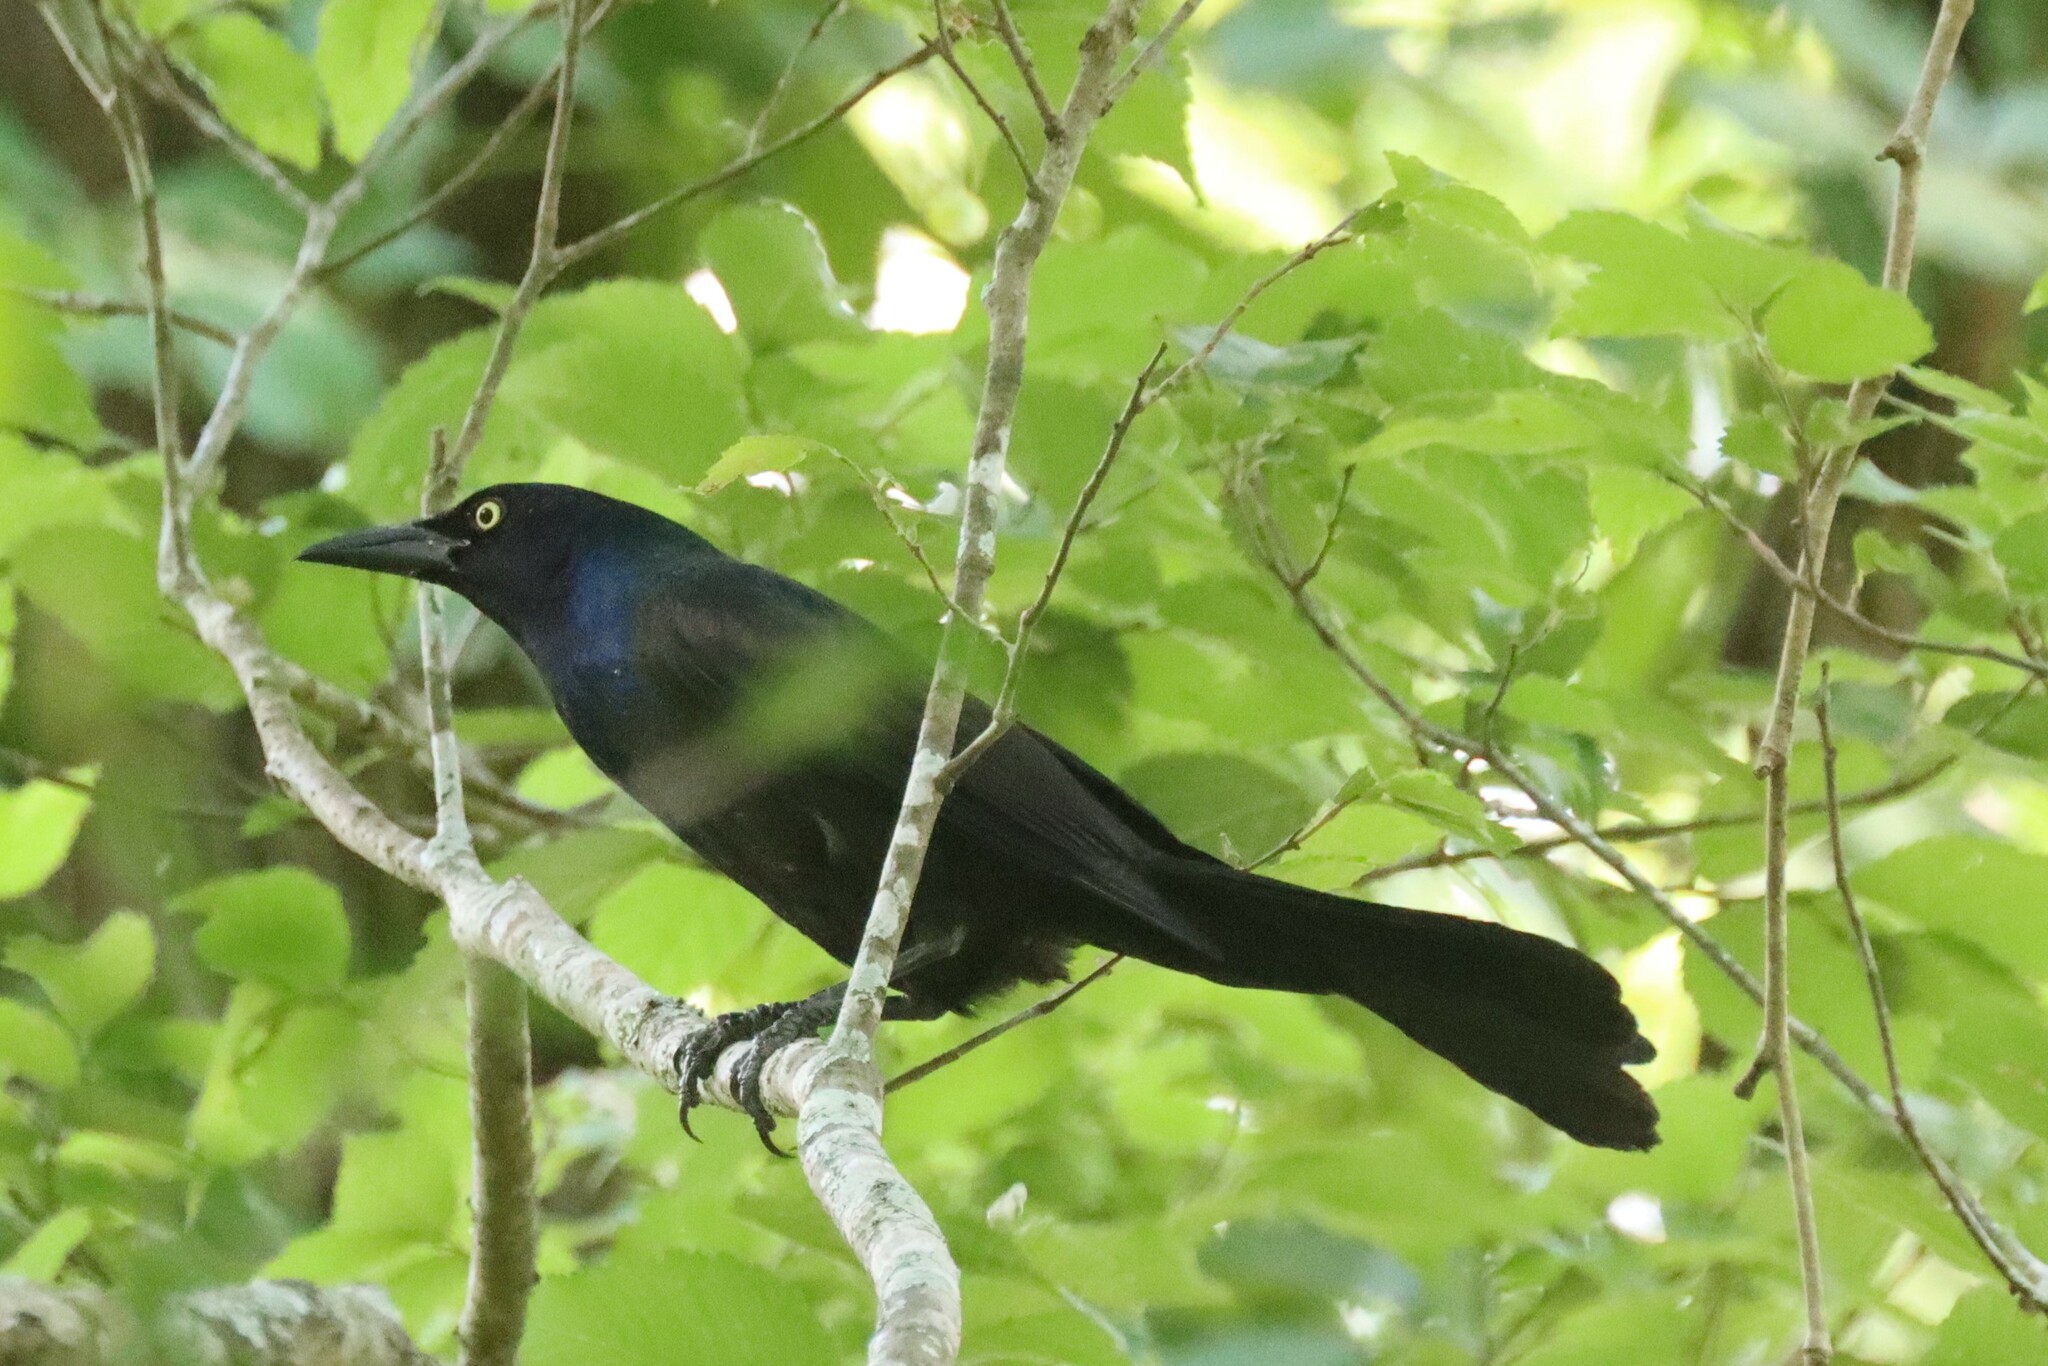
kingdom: Animalia
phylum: Chordata
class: Aves
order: Passeriformes
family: Icteridae
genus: Quiscalus
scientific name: Quiscalus quiscula
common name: Common grackle
